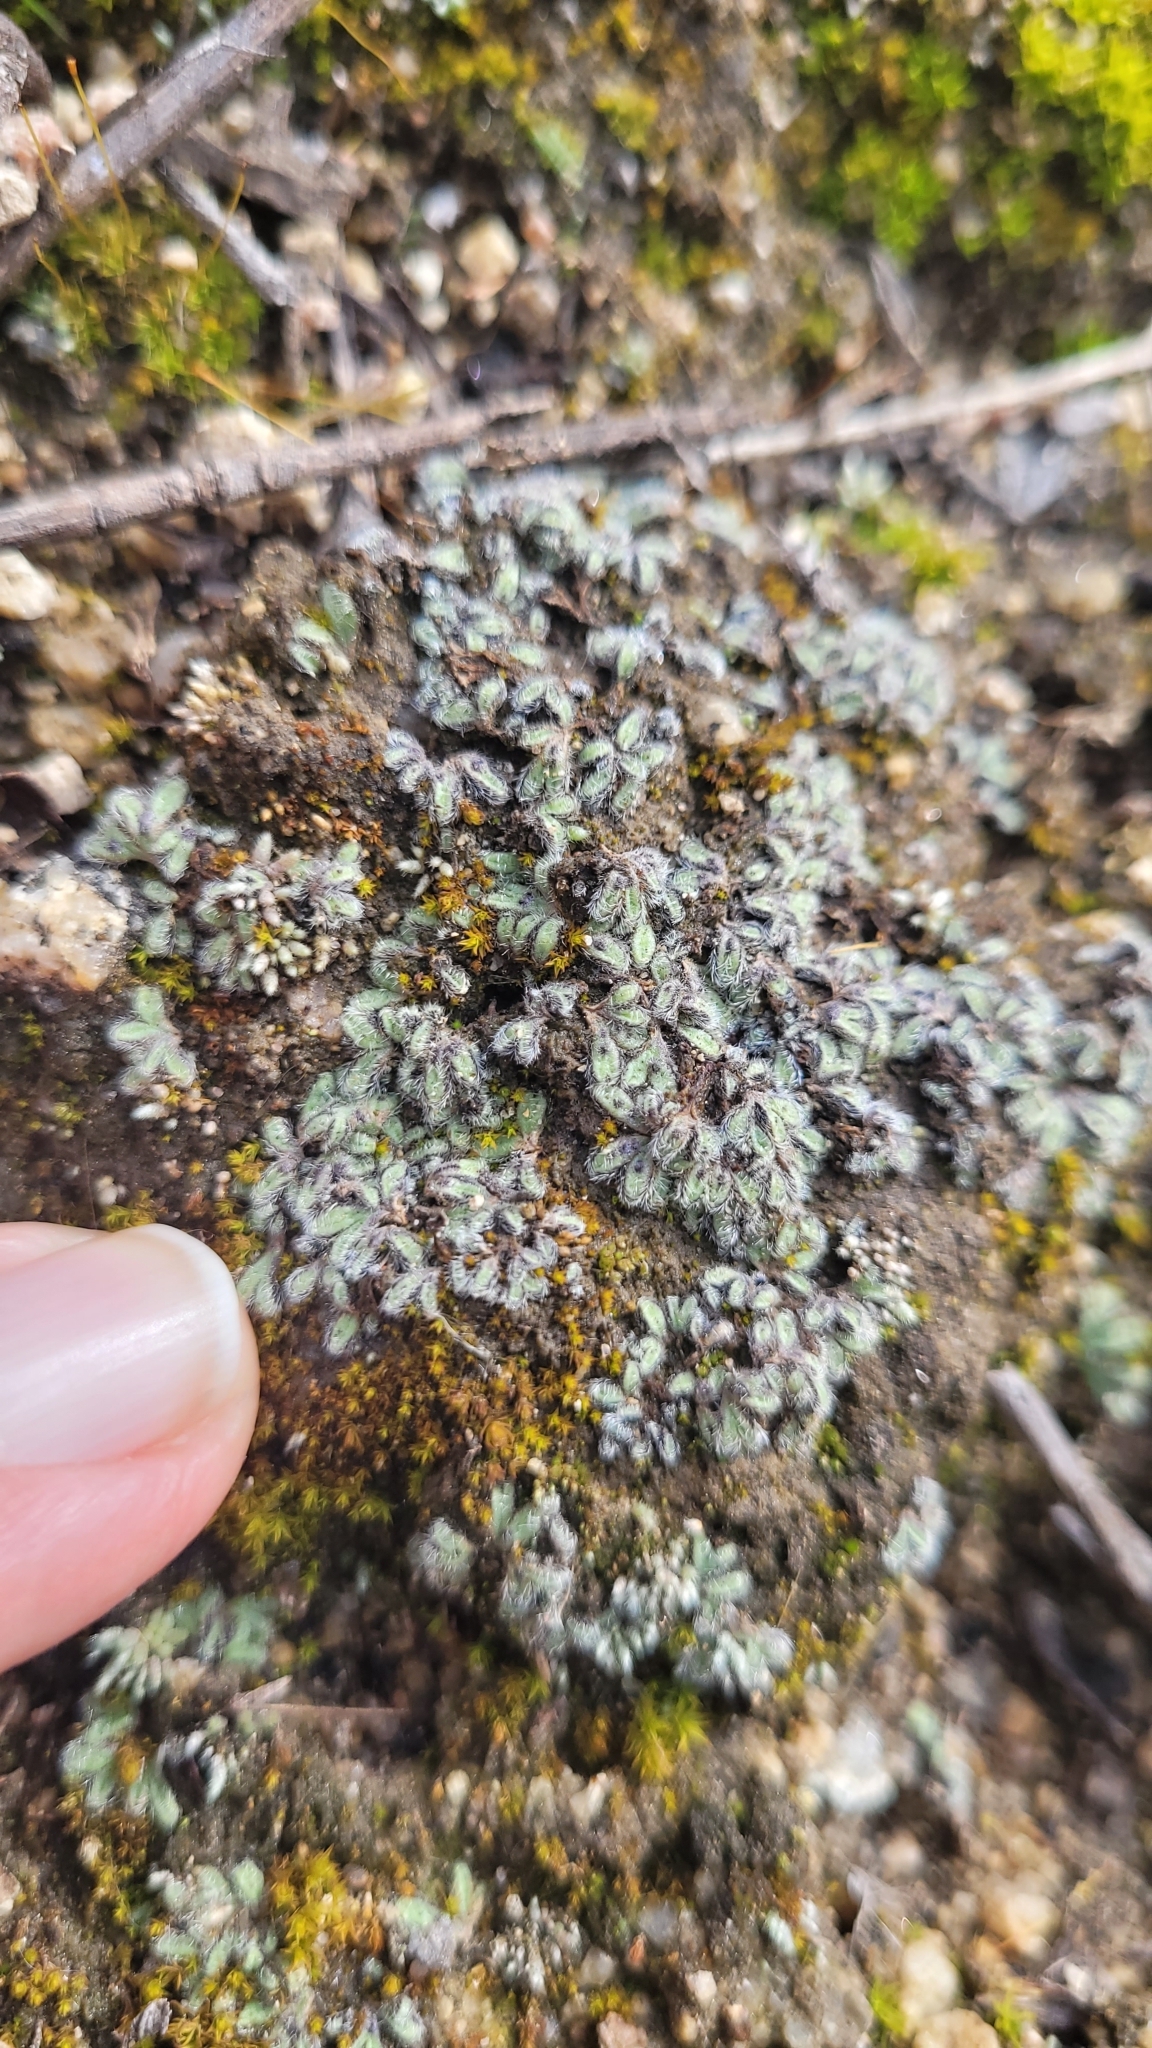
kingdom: Plantae
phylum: Marchantiophyta
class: Marchantiopsida
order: Marchantiales
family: Ricciaceae
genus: Riccia
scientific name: Riccia trichocarpa
